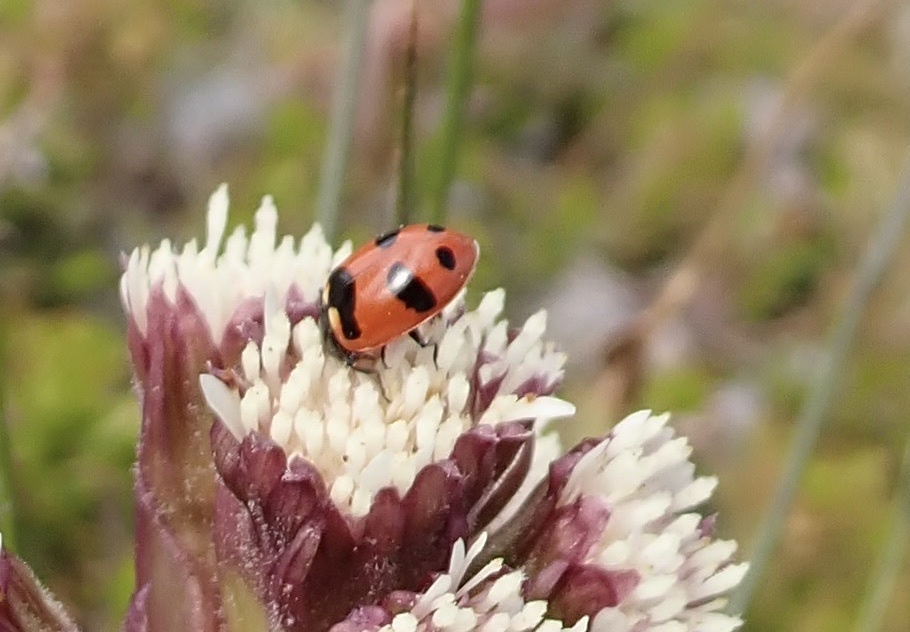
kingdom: Animalia
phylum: Arthropoda
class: Insecta
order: Coleoptera
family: Coccinellidae
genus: Coccinella
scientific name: Coccinella trifasciata
